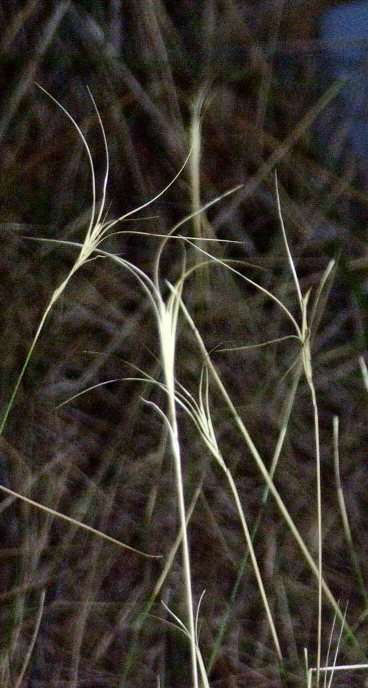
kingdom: Plantae
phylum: Tracheophyta
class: Liliopsida
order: Poales
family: Poaceae
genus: Anthosachne
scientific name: Anthosachne scabra
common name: Common wheatgrass
